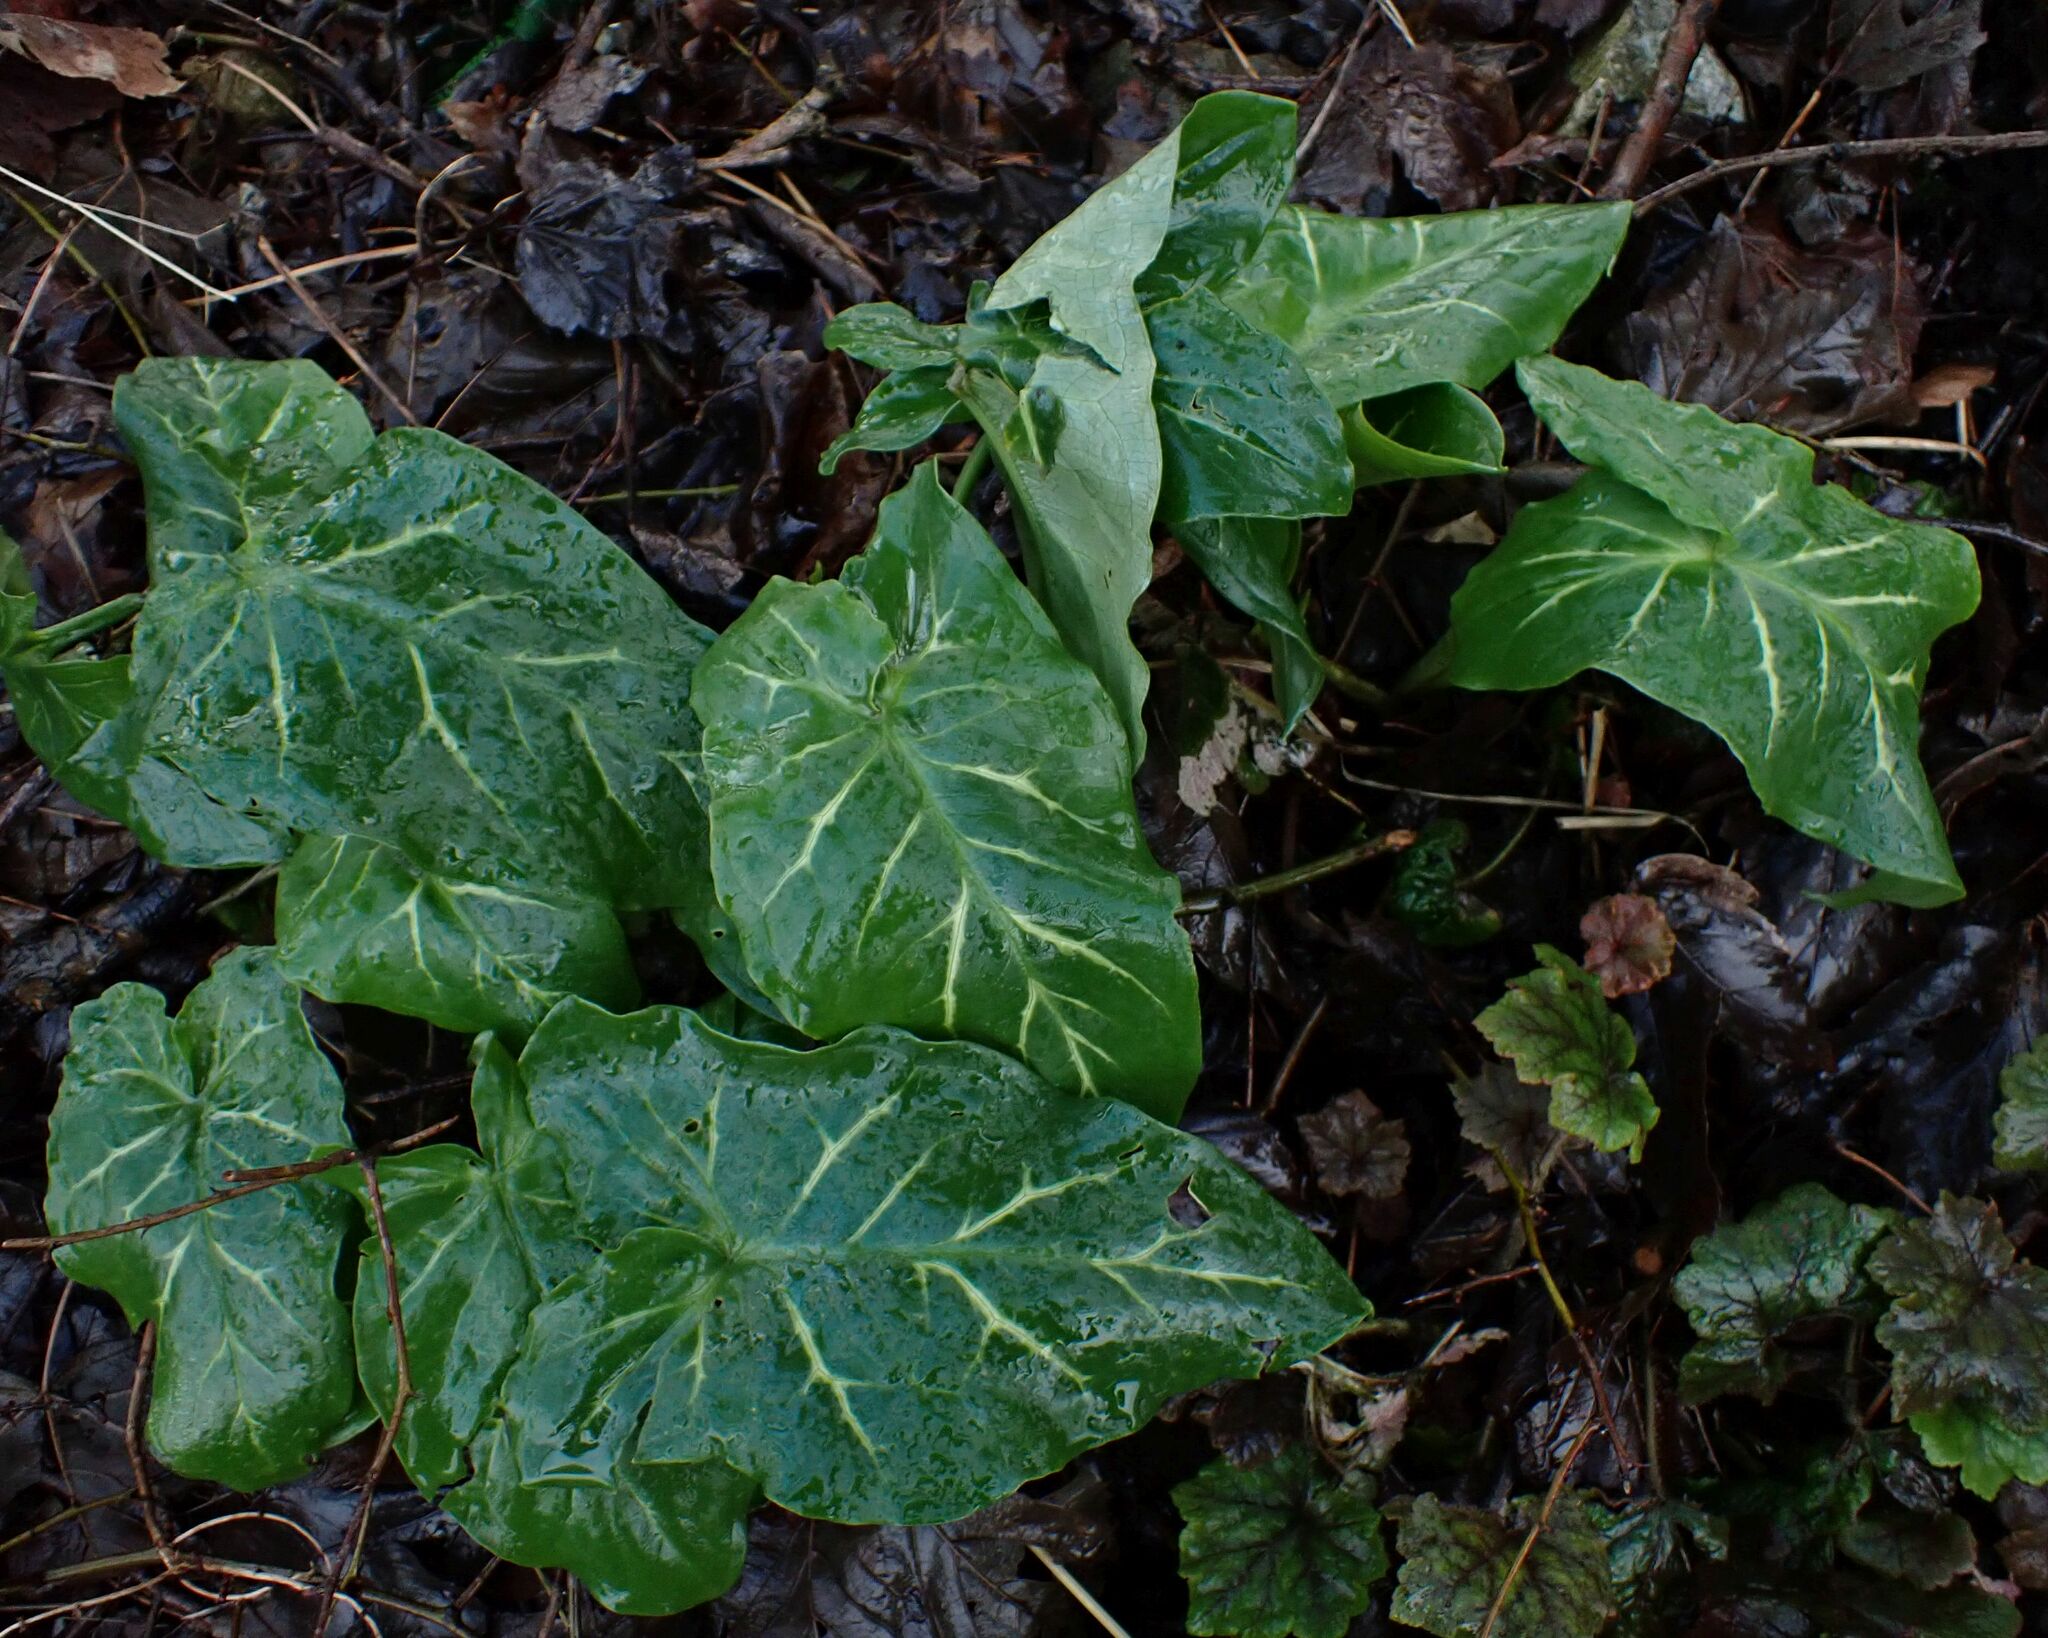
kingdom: Plantae
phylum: Tracheophyta
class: Liliopsida
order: Alismatales
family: Araceae
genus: Arum
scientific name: Arum italicum
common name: Italian lords-and-ladies
